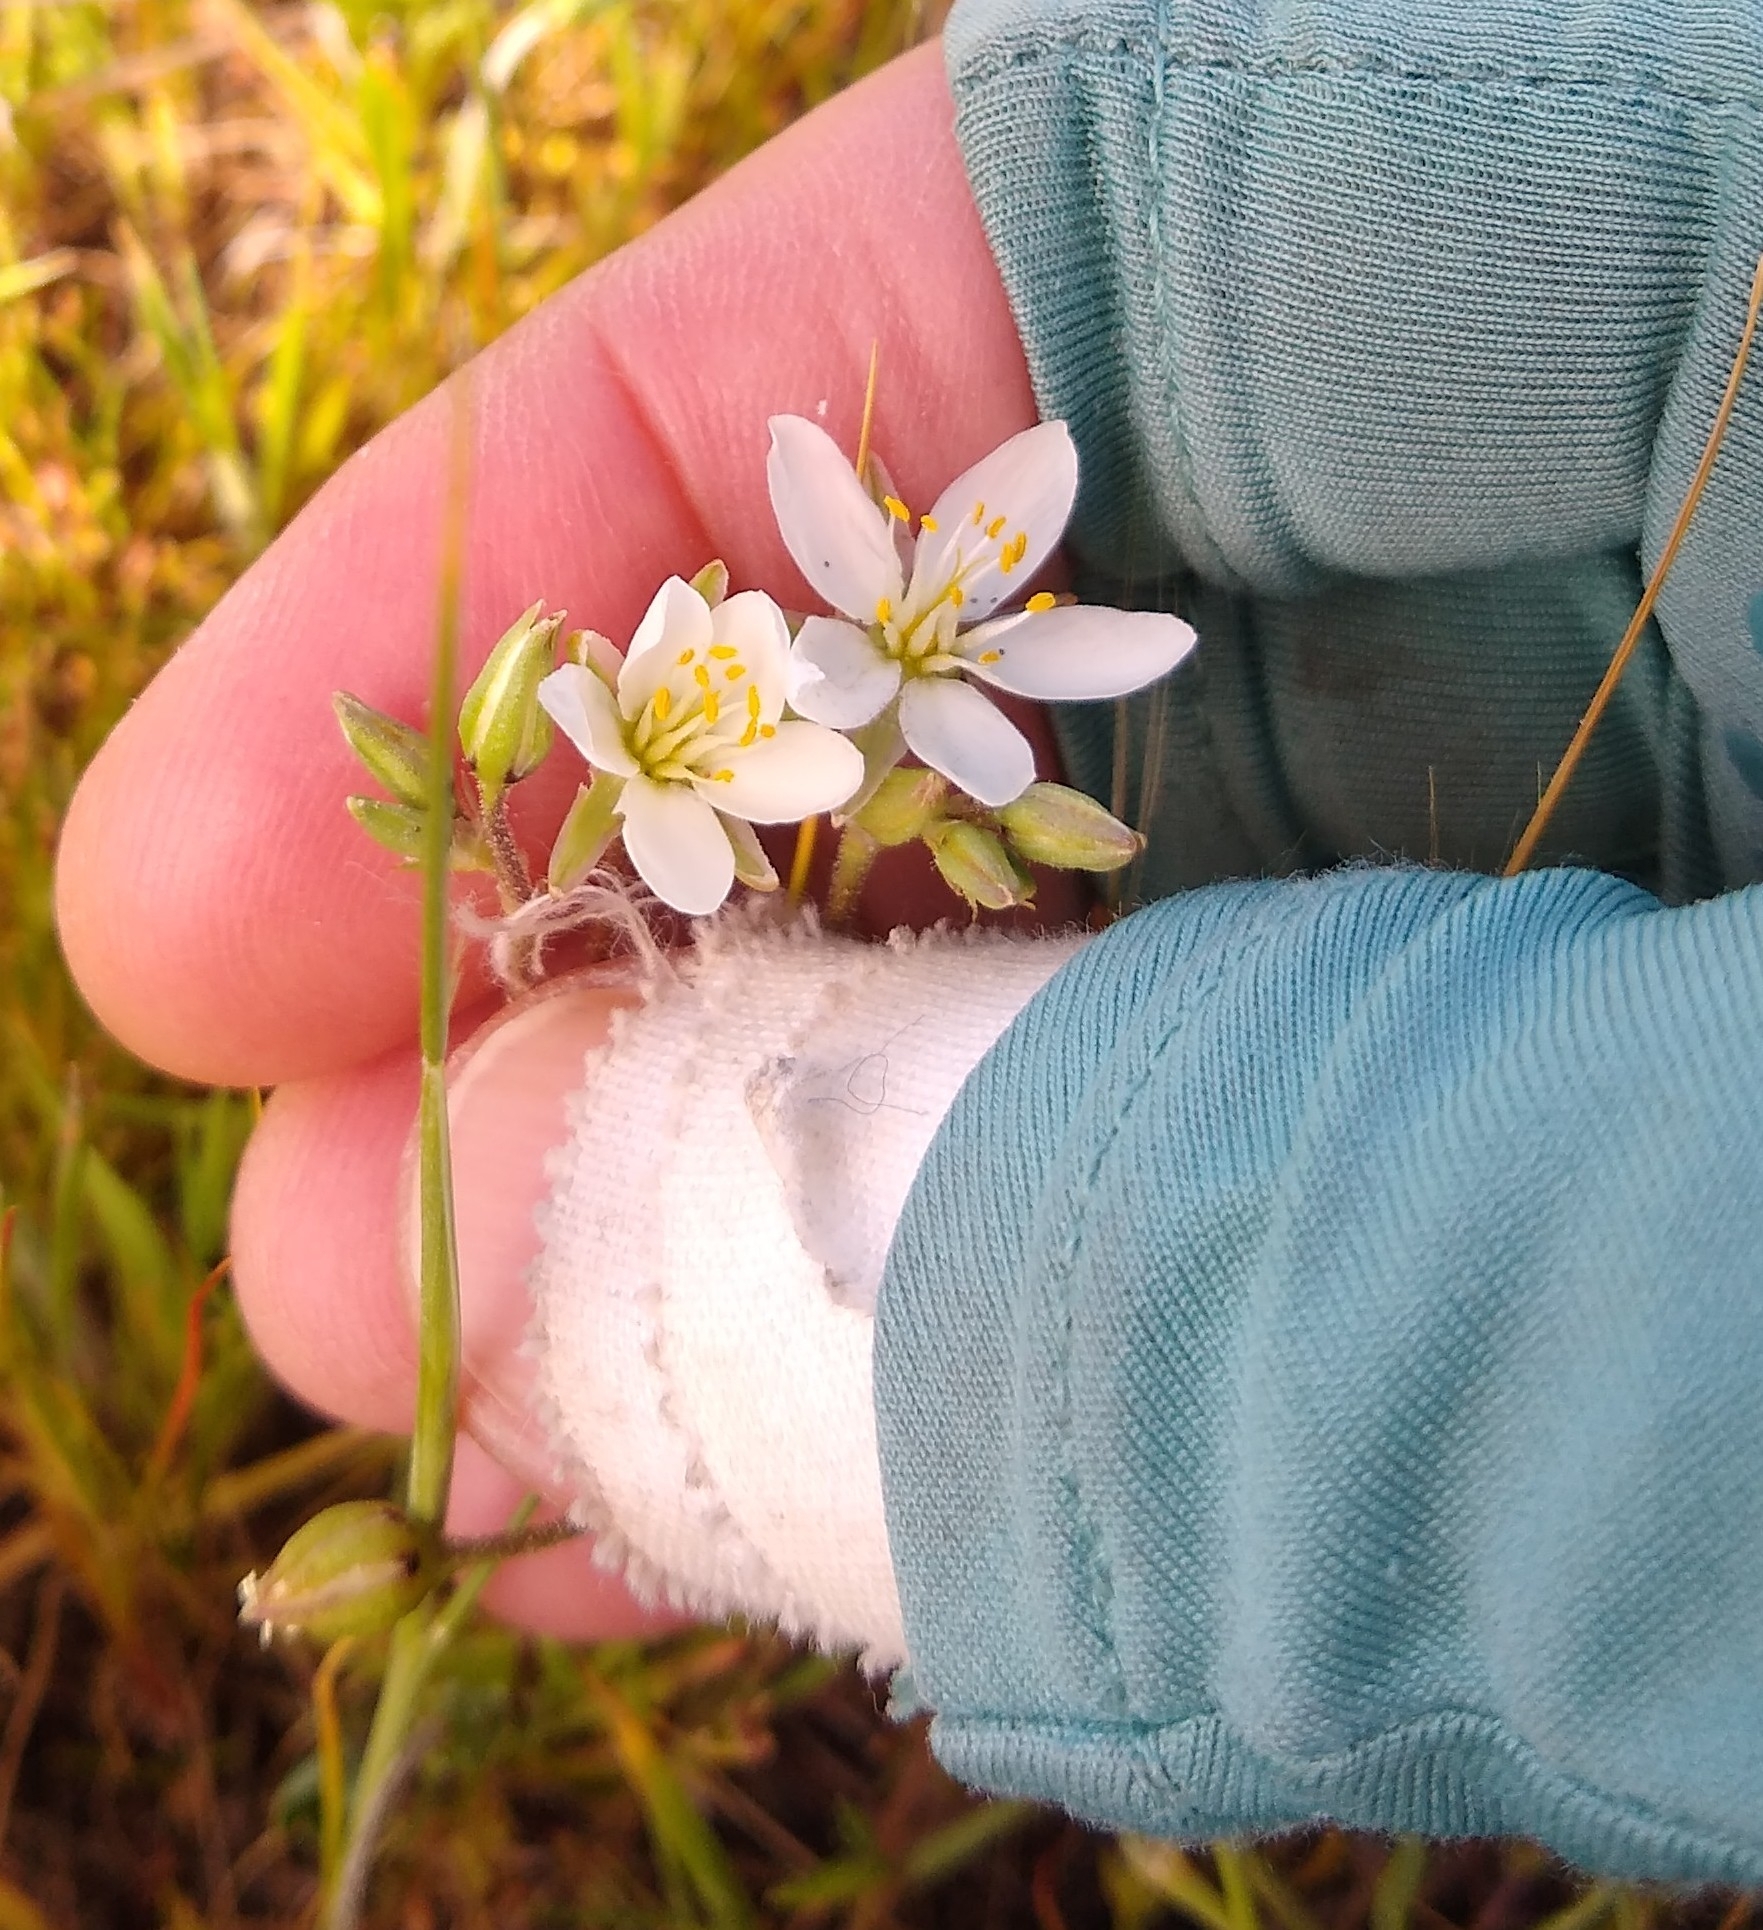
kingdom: Plantae
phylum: Tracheophyta
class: Magnoliopsida
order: Caryophyllales
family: Caryophyllaceae
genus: Spergularia
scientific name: Spergularia macrotheca
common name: Beach sand-spurrey
